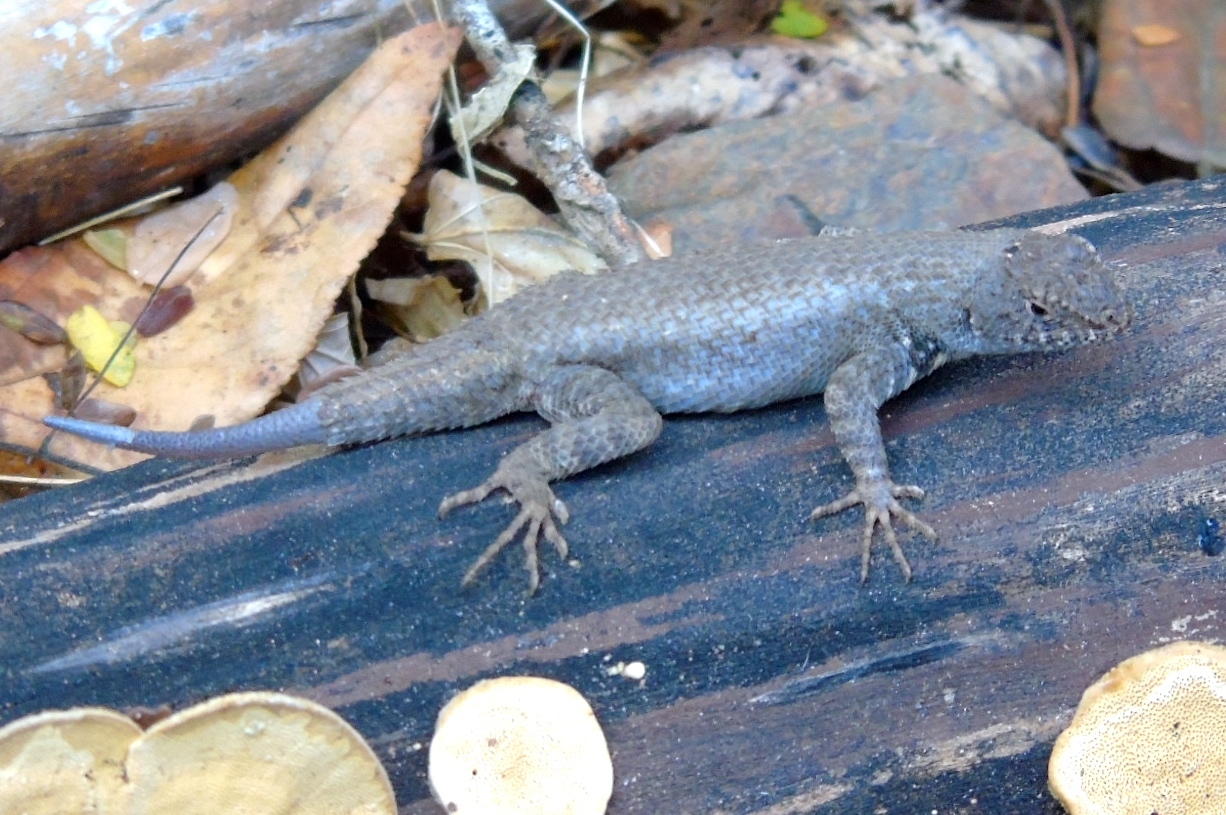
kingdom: Animalia
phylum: Chordata
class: Squamata
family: Phrynosomatidae
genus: Sceloporus
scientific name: Sceloporus nelsoni
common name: Nelson's spiny lizard
